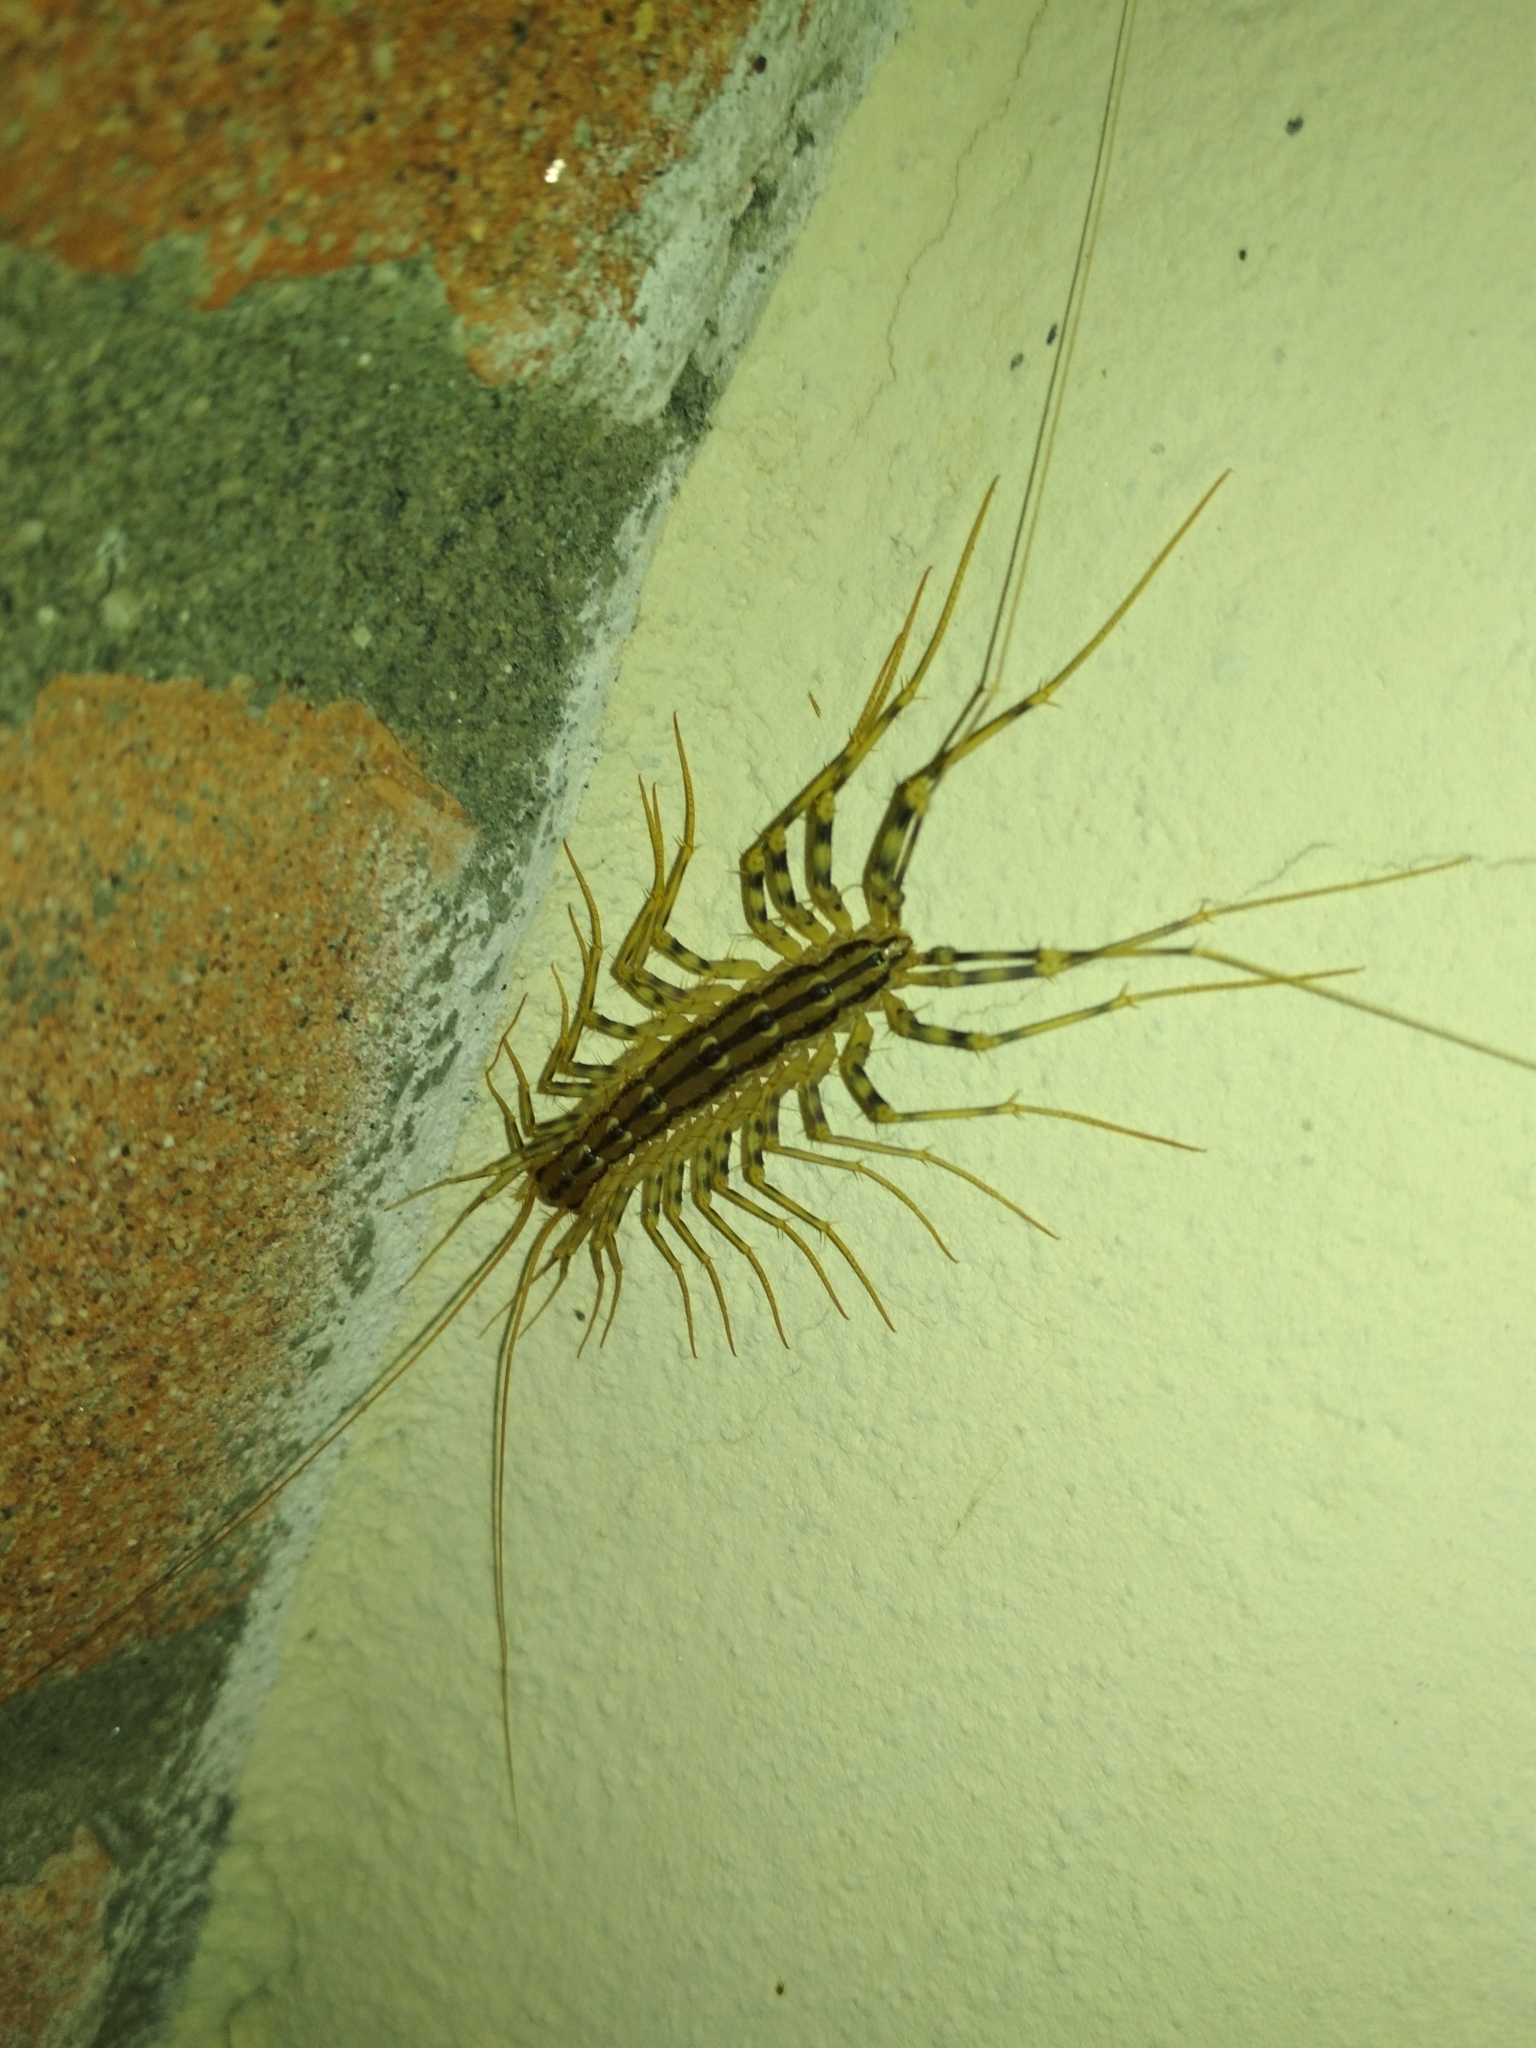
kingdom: Animalia
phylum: Arthropoda
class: Chilopoda
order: Scutigeromorpha
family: Scutigeridae
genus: Scutigera
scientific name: Scutigera coleoptrata
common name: House centipede
